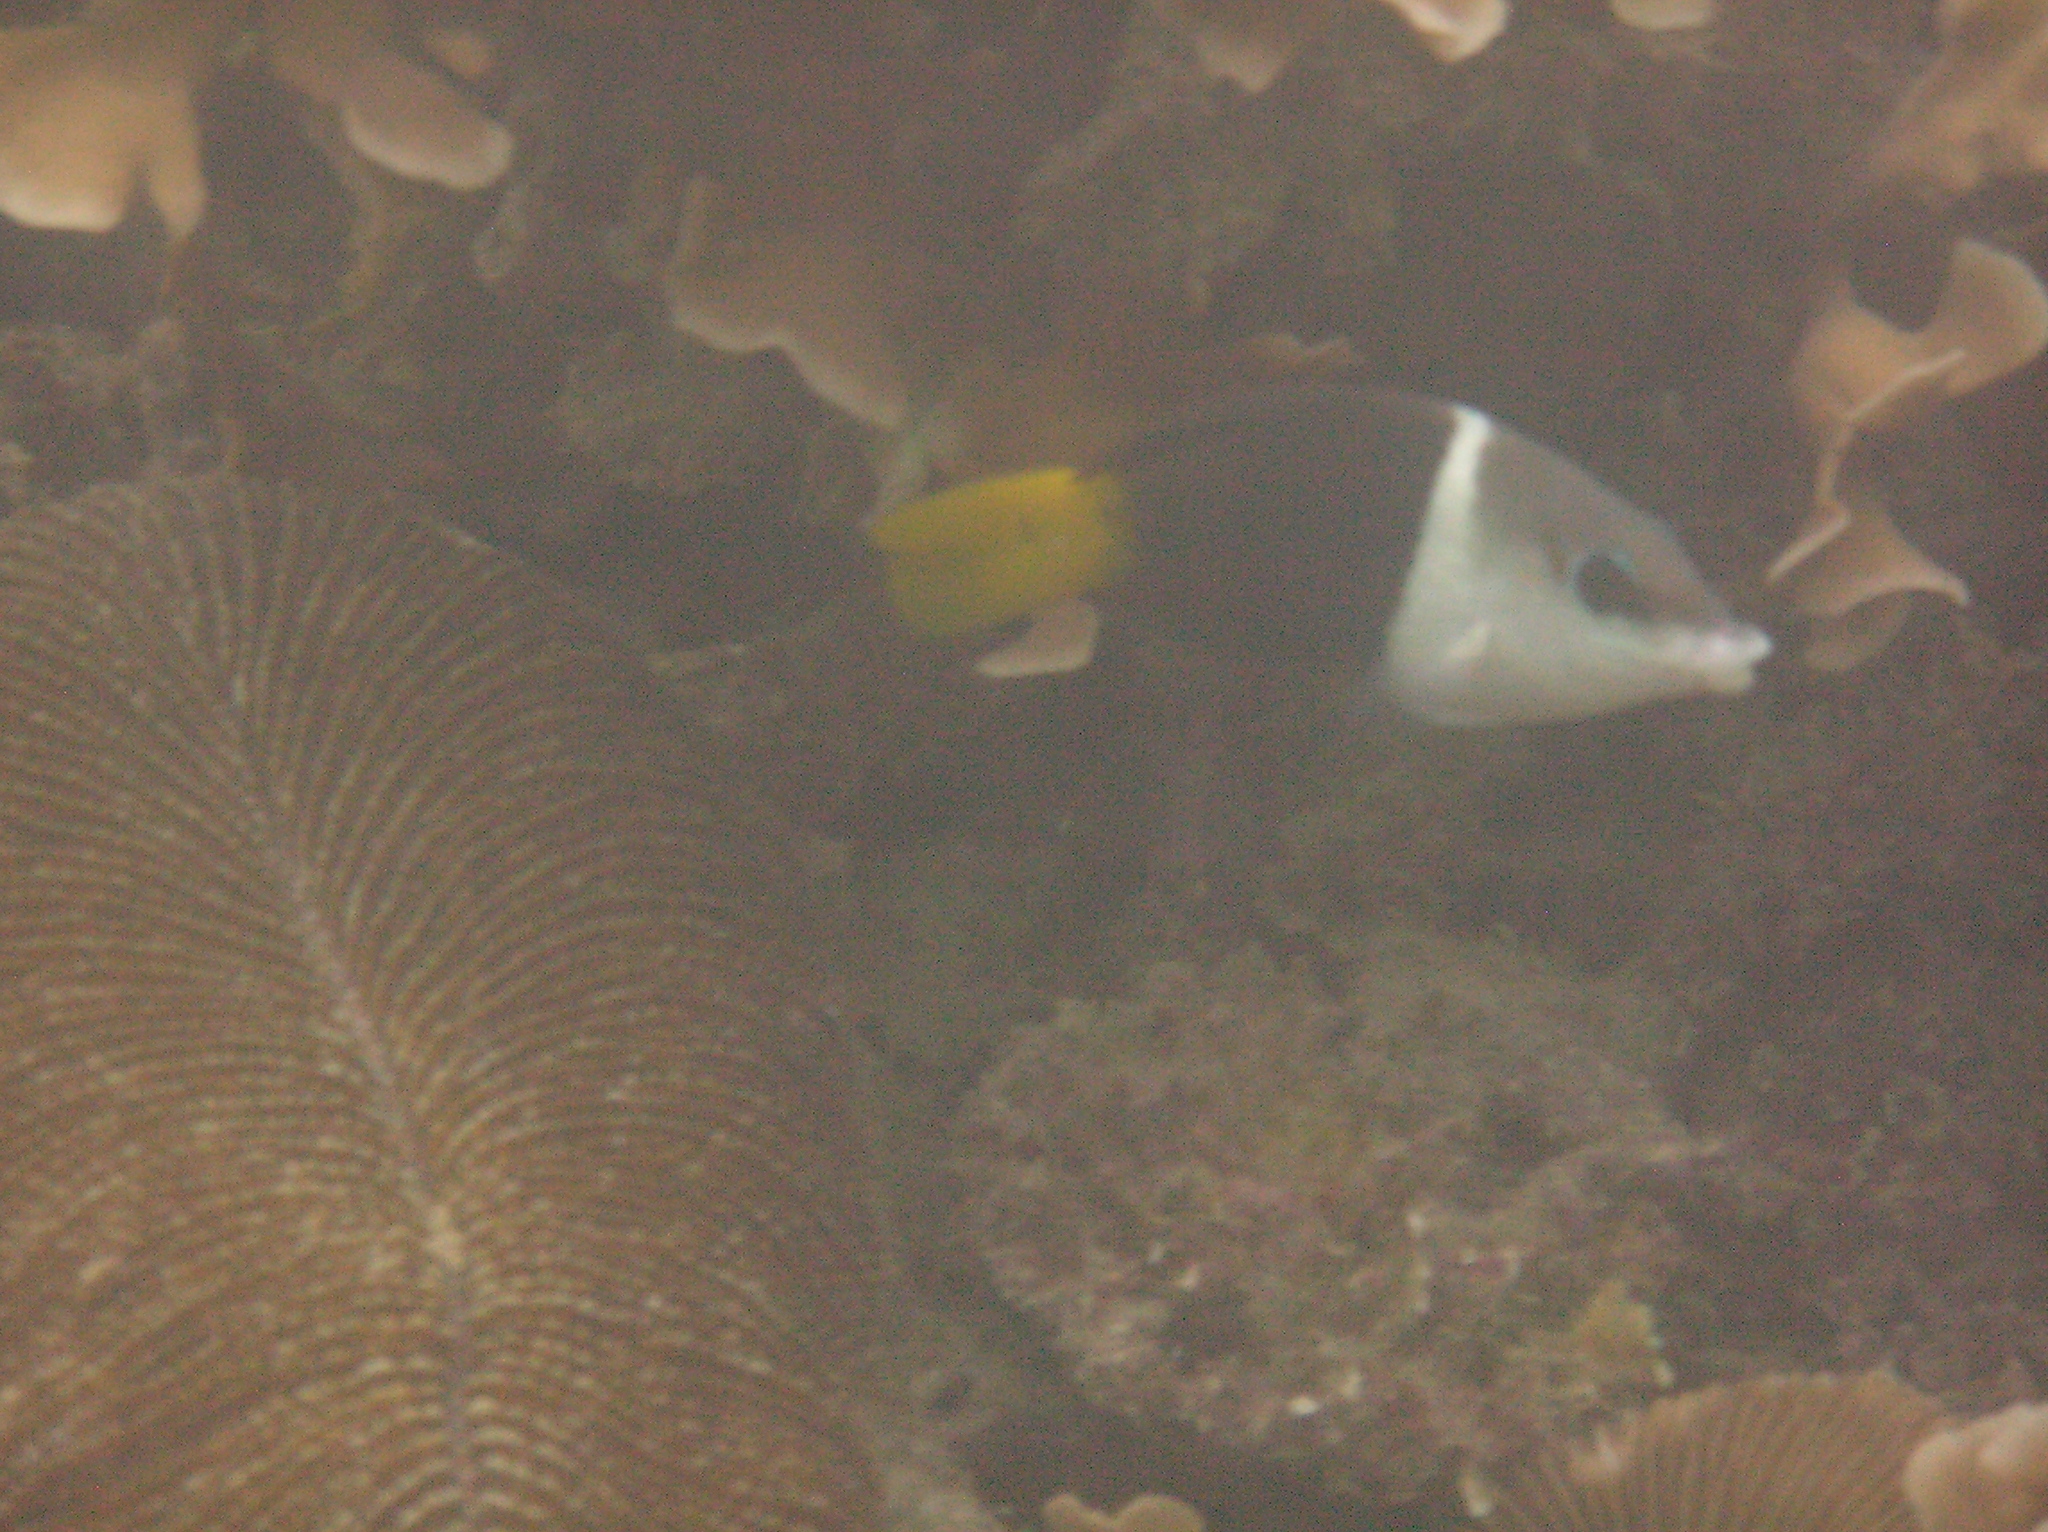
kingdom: Animalia
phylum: Chordata
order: Perciformes
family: Labridae
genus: Hemigymnus
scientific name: Hemigymnus melapterus
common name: Blackeye thicklip
